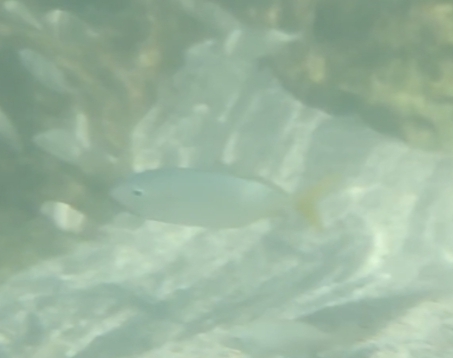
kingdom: Animalia
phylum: Chordata
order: Perciformes
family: Carangidae
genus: Caranx
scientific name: Caranx crysos
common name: Blue runner
